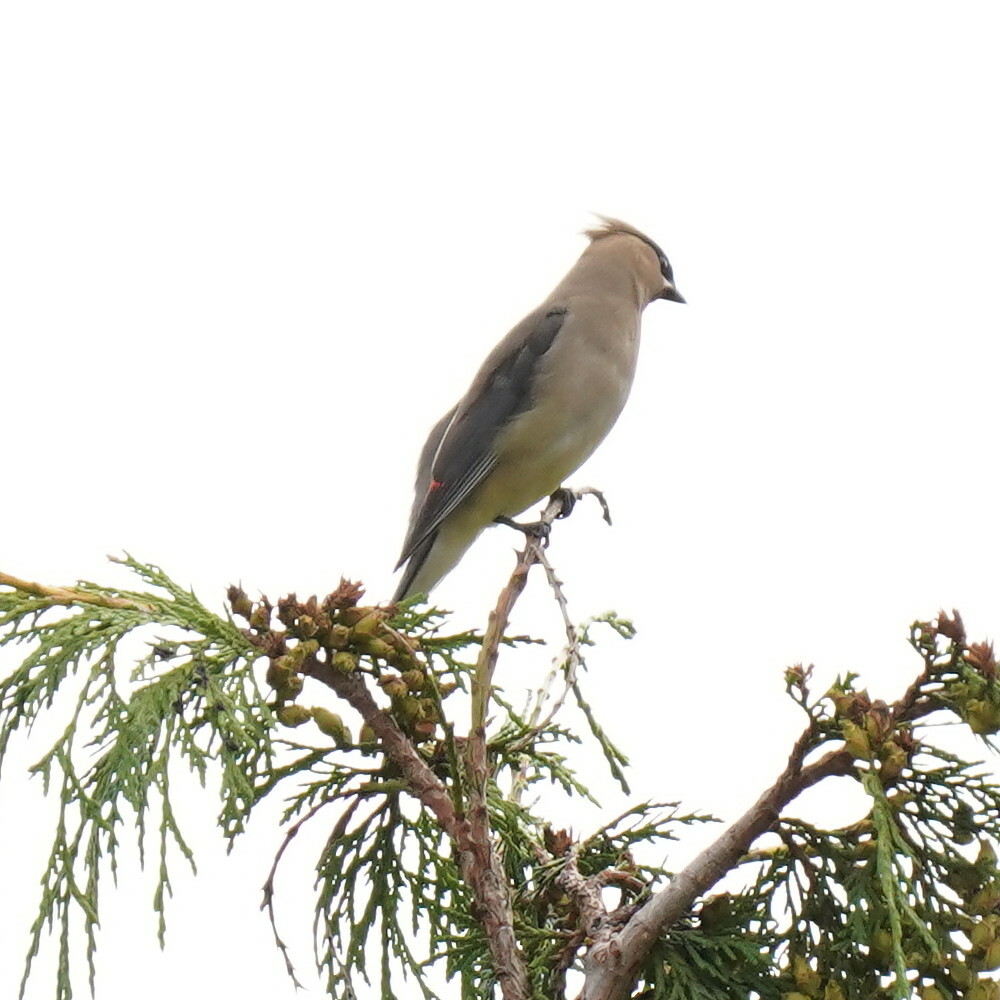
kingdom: Animalia
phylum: Chordata
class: Aves
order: Passeriformes
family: Bombycillidae
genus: Bombycilla
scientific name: Bombycilla cedrorum
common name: Cedar waxwing
